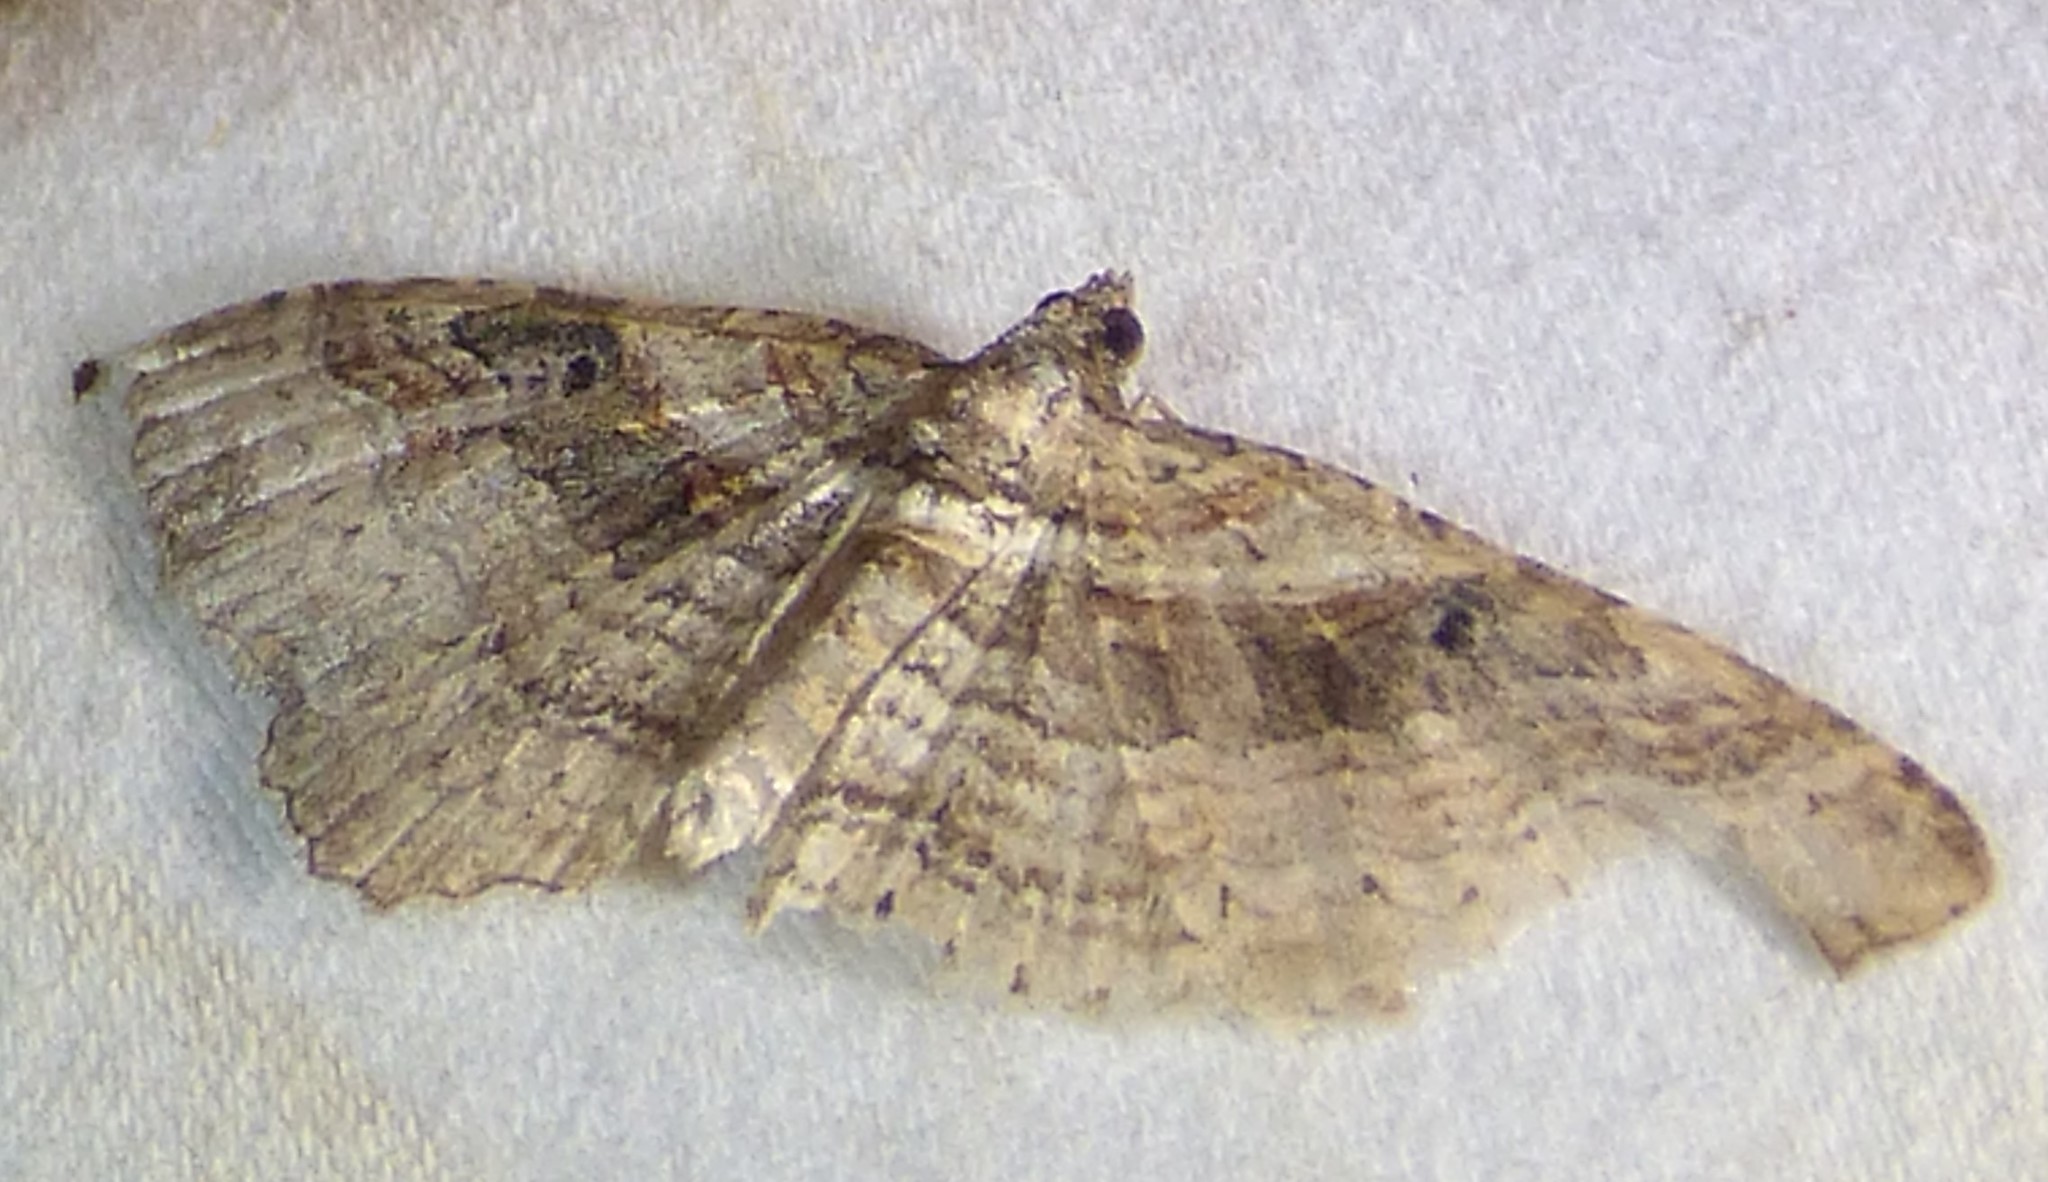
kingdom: Animalia
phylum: Arthropoda
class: Insecta
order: Lepidoptera
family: Geometridae
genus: Costaconvexa
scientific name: Costaconvexa centrostrigaria
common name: Bent-line carpet
